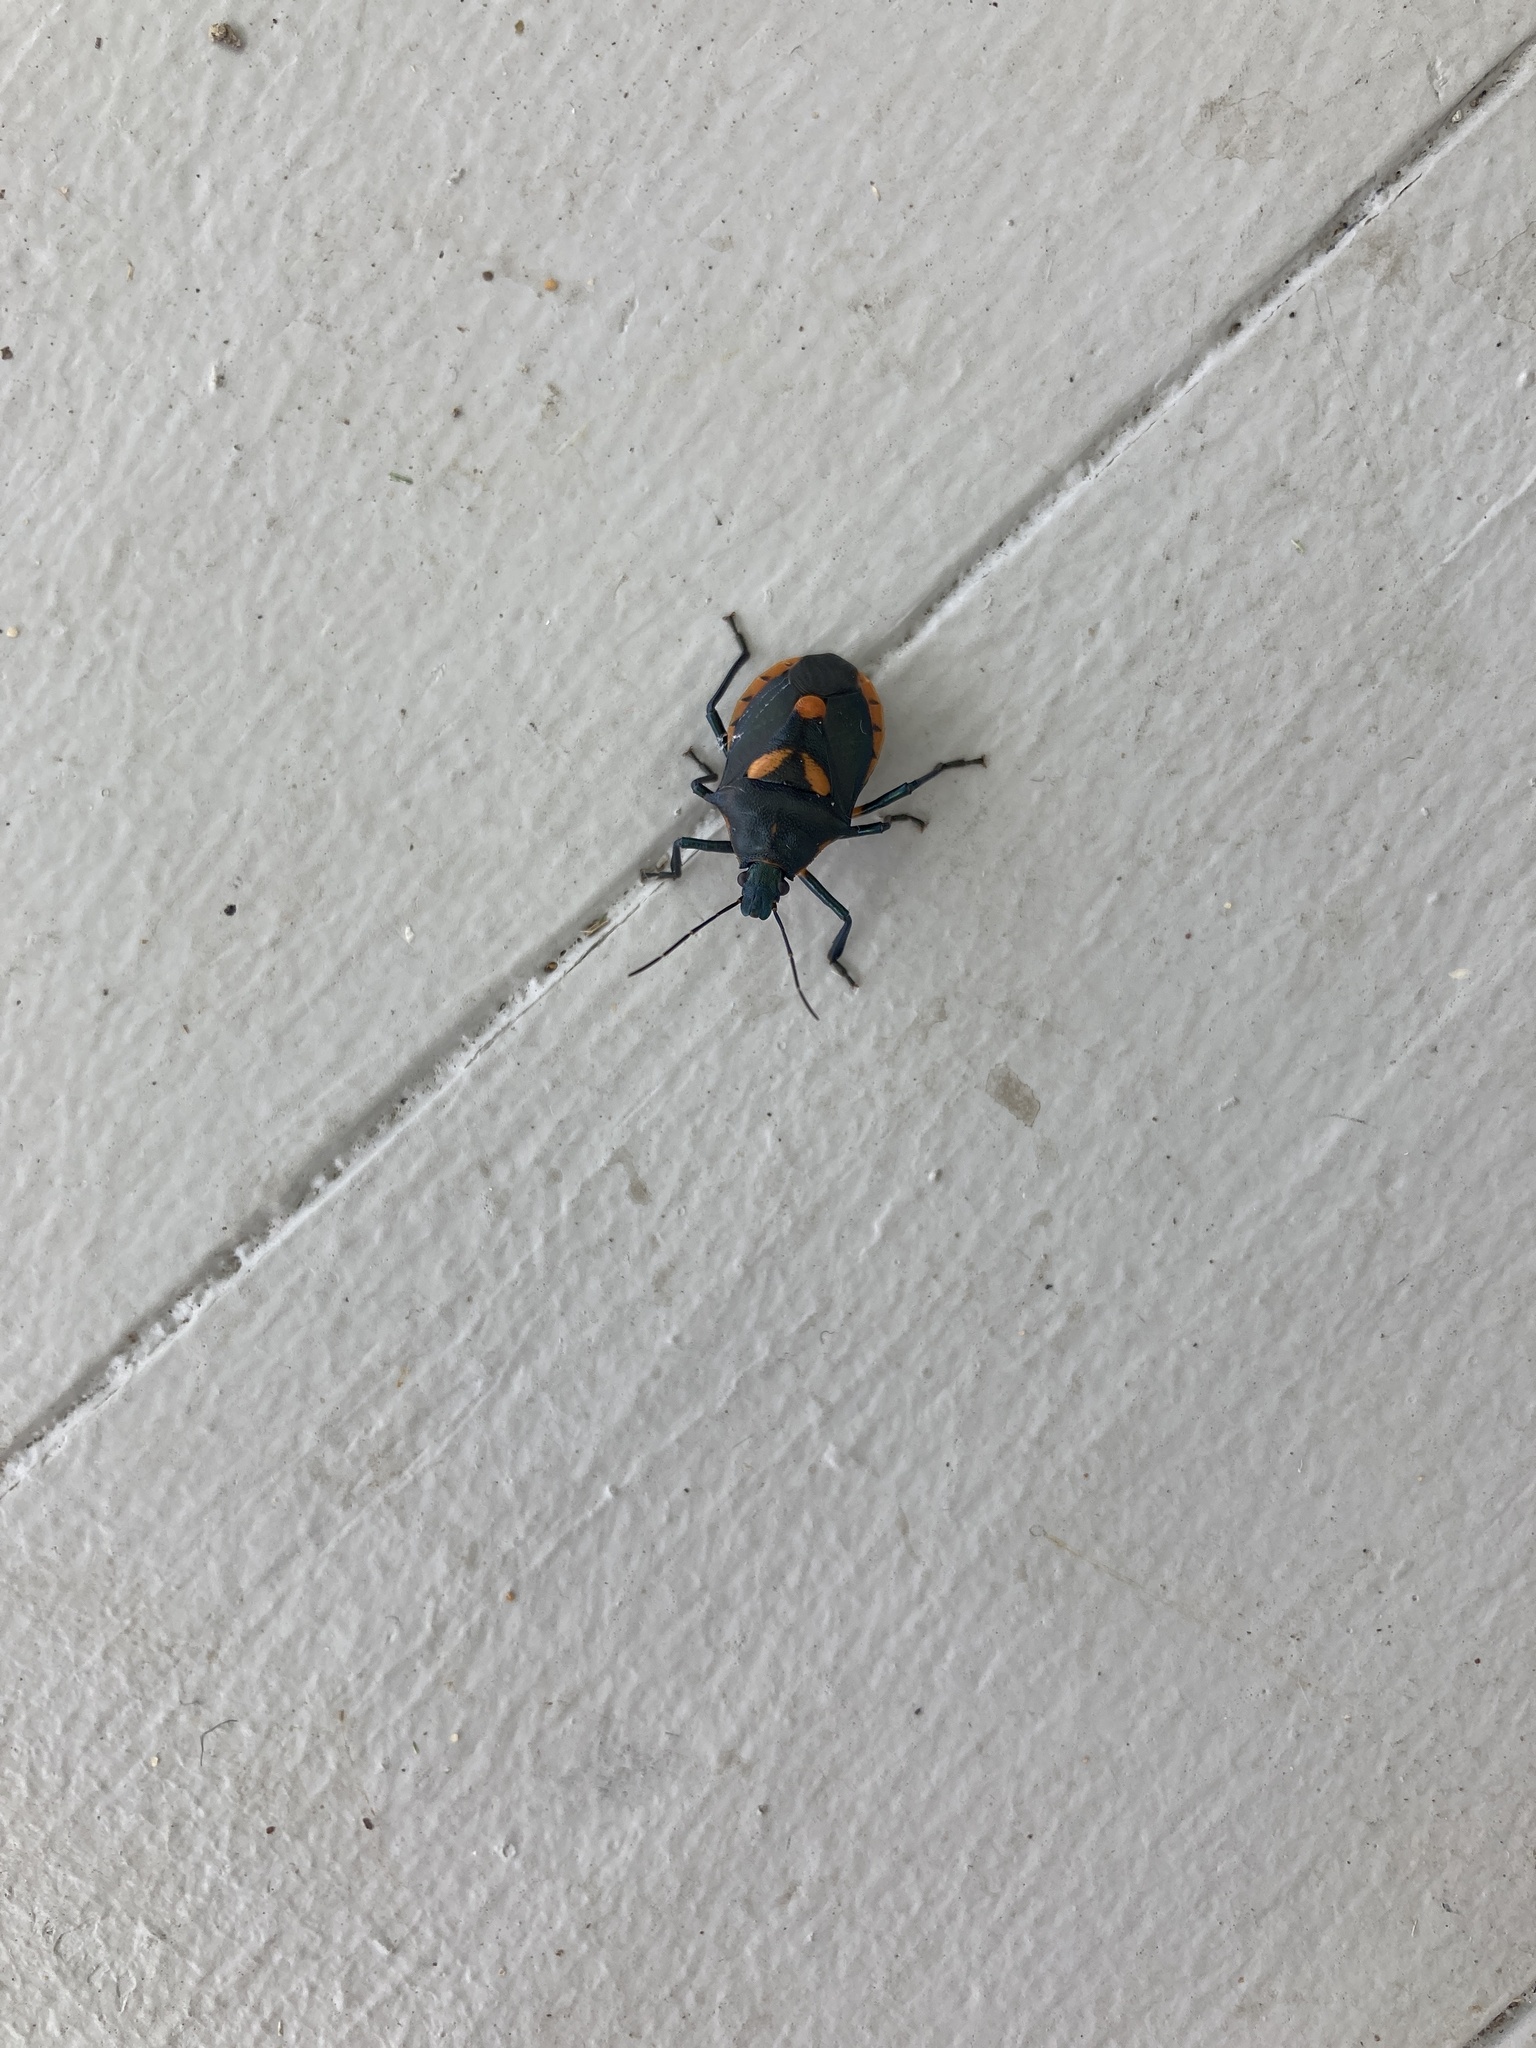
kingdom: Animalia
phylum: Arthropoda
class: Insecta
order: Hemiptera
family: Pentatomidae
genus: Euthyrhynchus
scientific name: Euthyrhynchus floridanus
